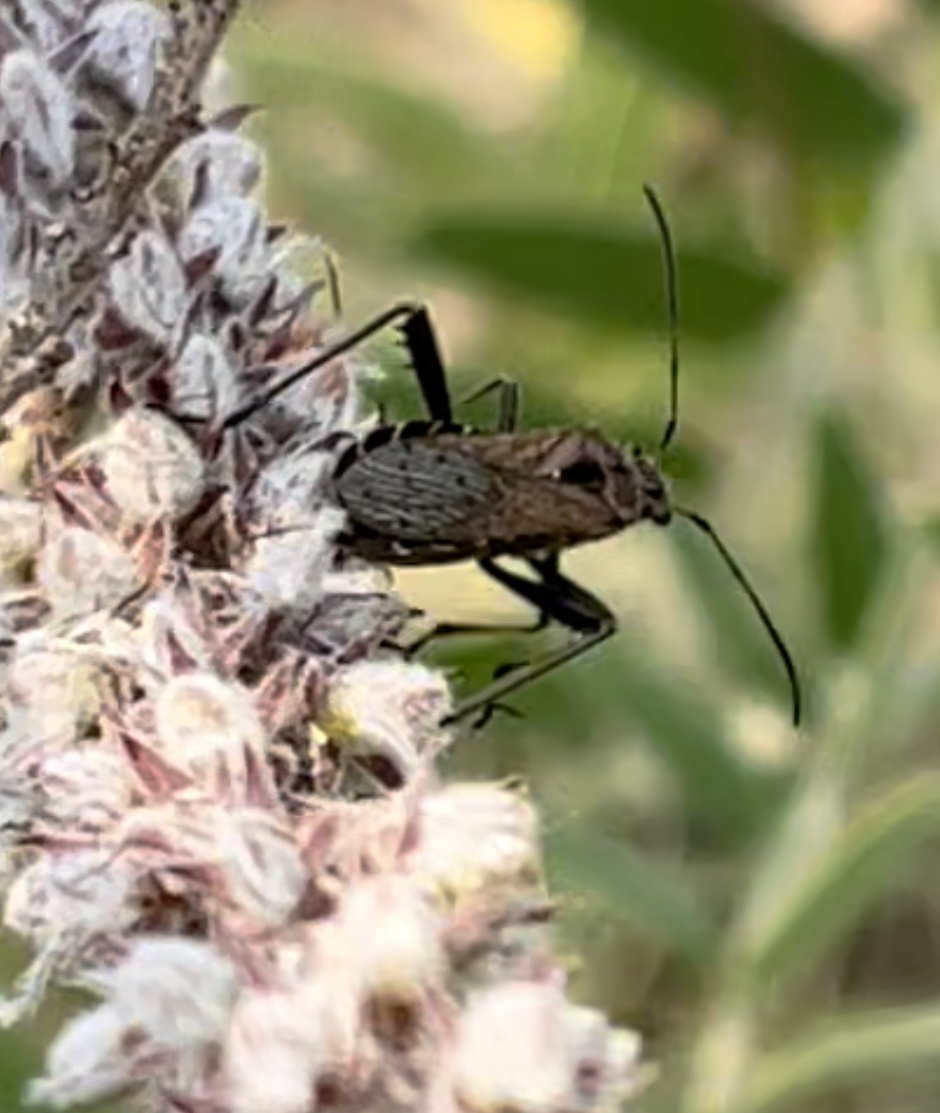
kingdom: Animalia
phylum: Arthropoda
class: Insecta
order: Hemiptera
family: Alydidae
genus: Alydus
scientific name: Alydus conspersus
